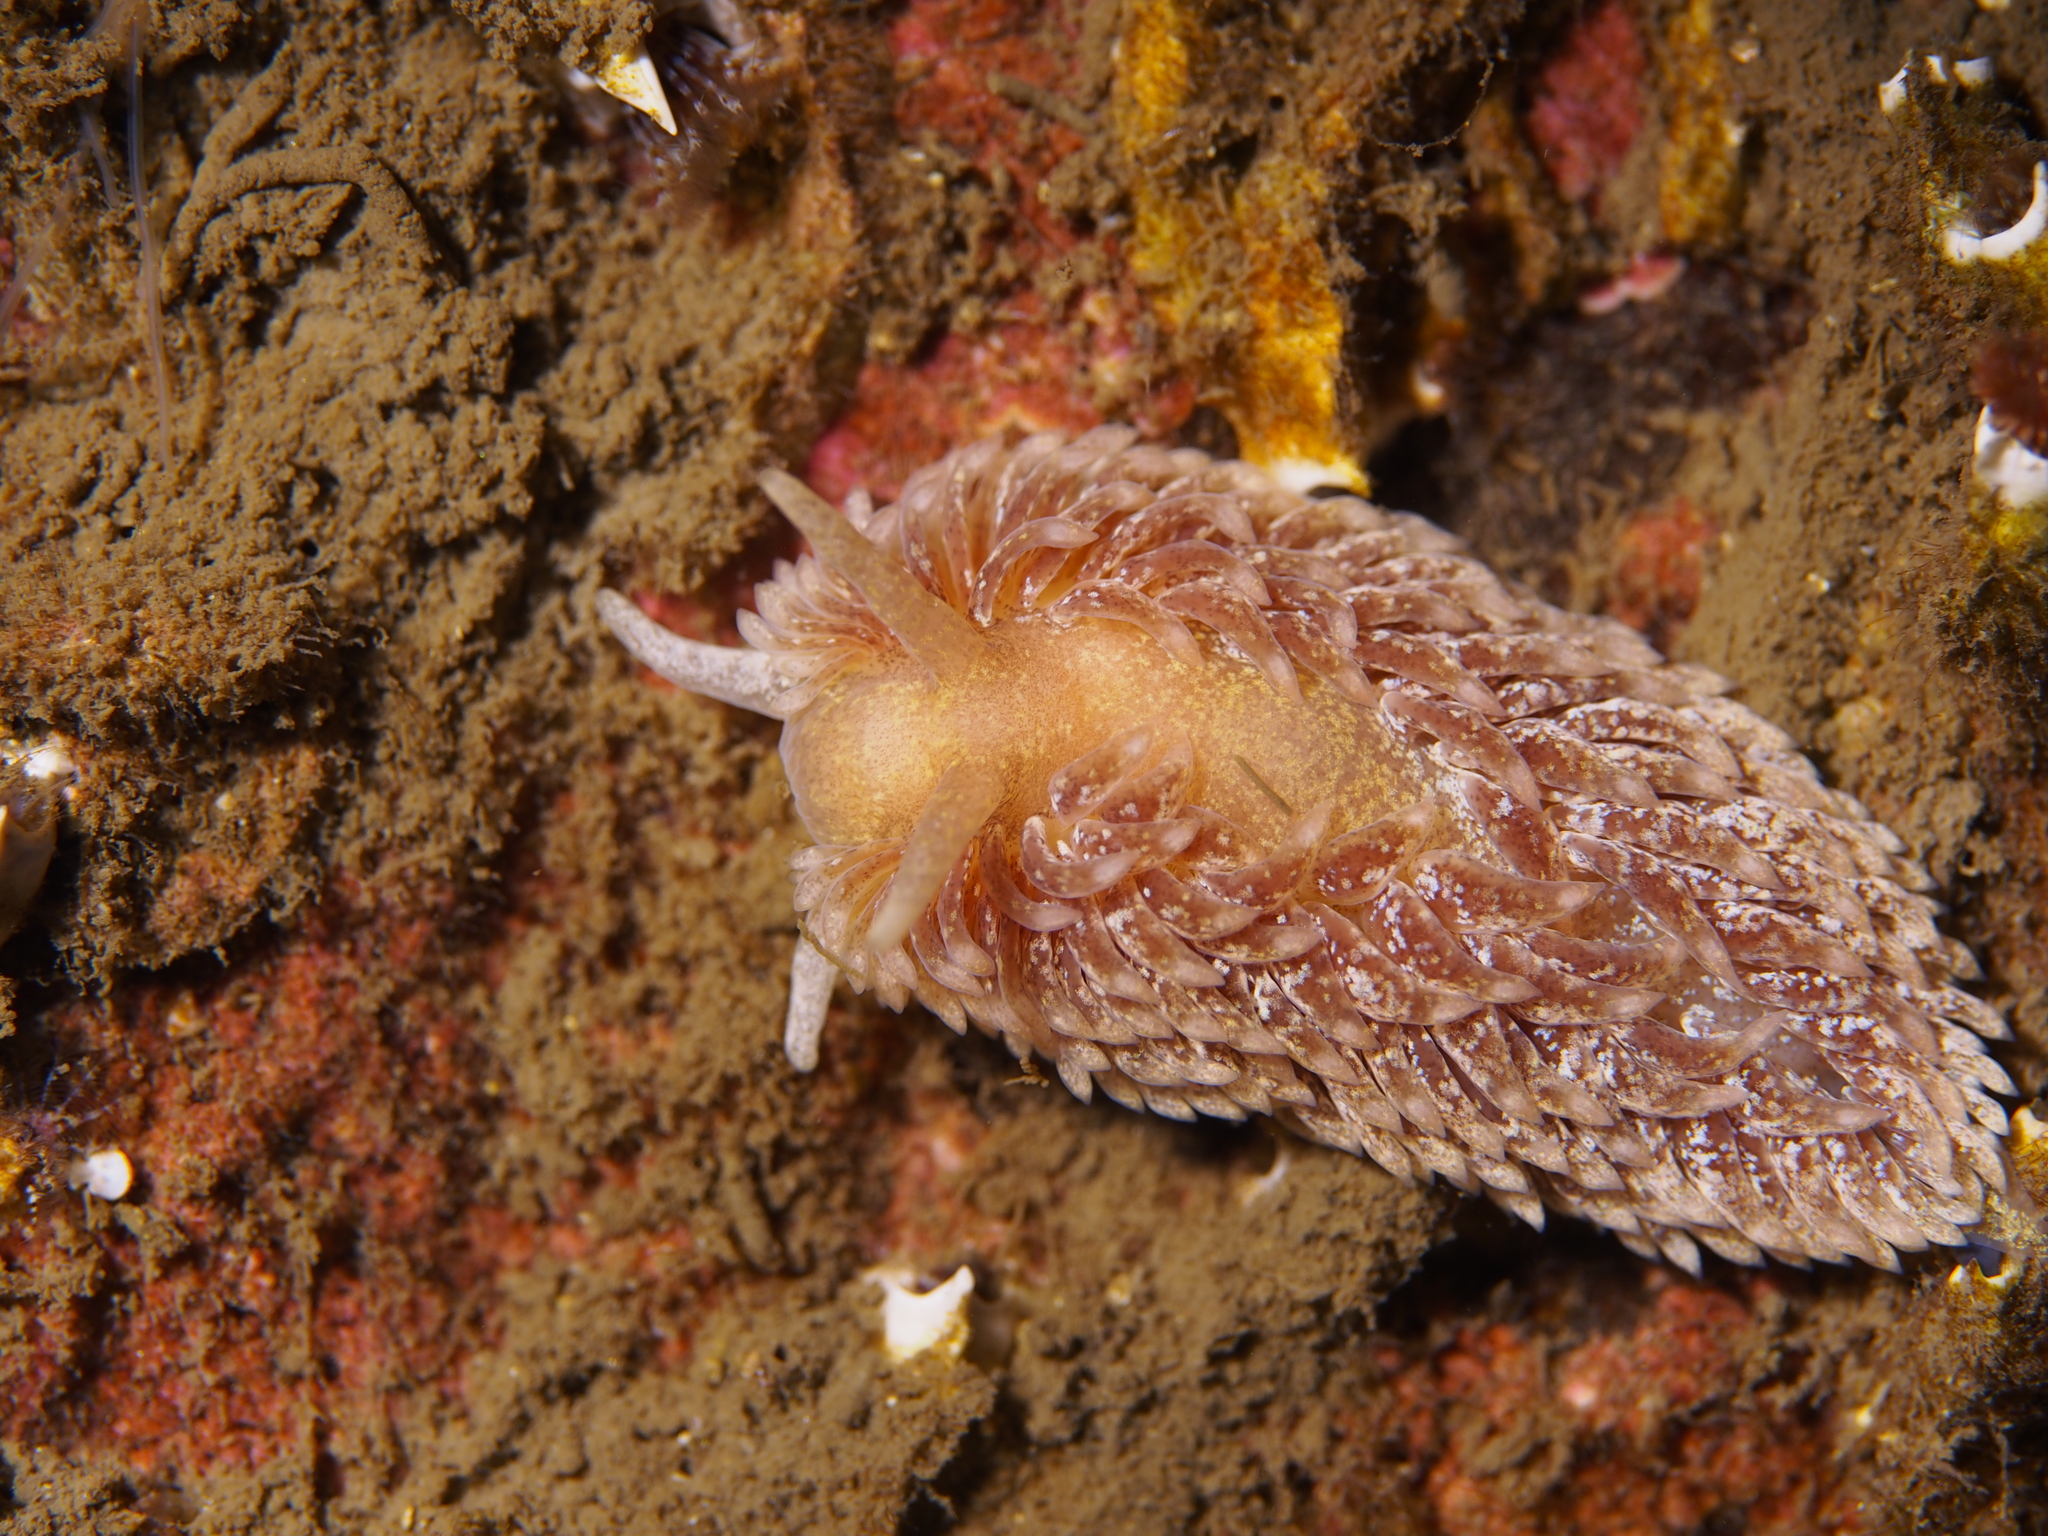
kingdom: Animalia
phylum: Mollusca
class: Gastropoda
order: Nudibranchia
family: Aeolidiidae
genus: Aeolidia
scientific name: Aeolidia papillosa
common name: Common grey sea slug
